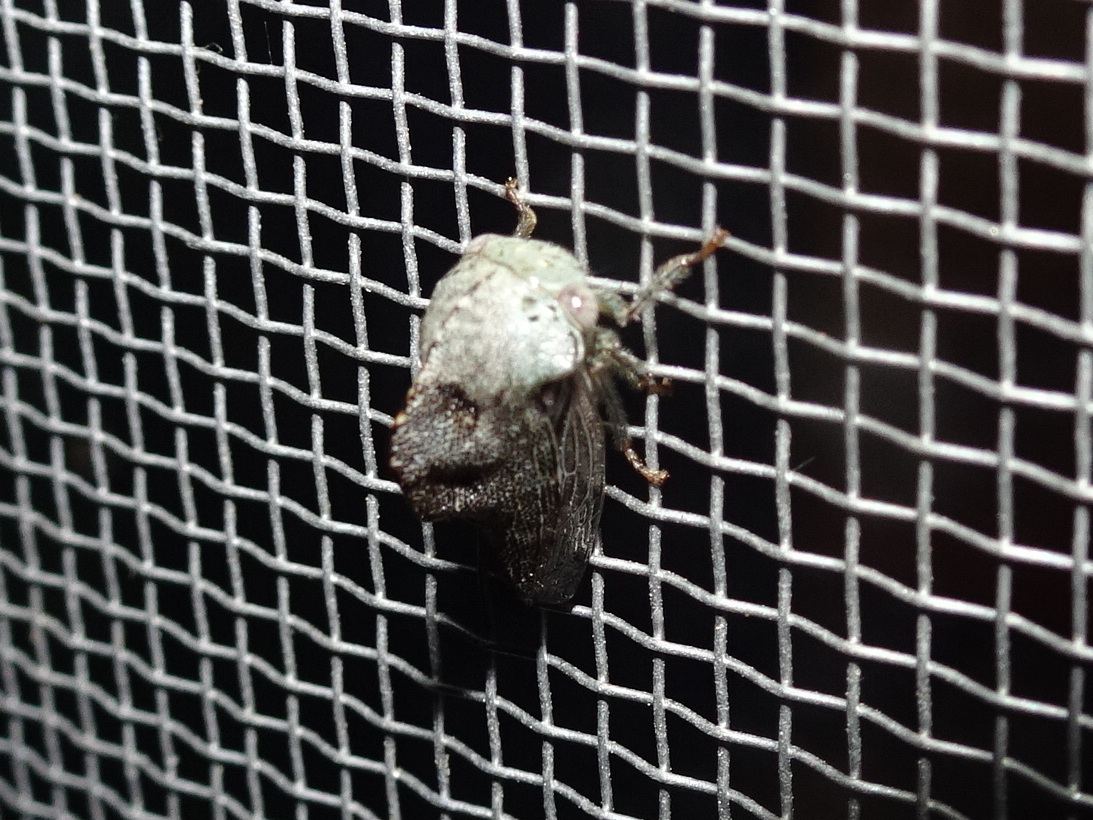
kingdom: Animalia
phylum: Arthropoda
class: Insecta
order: Hemiptera
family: Membracidae
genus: Telamona
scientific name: Telamona reclivata
